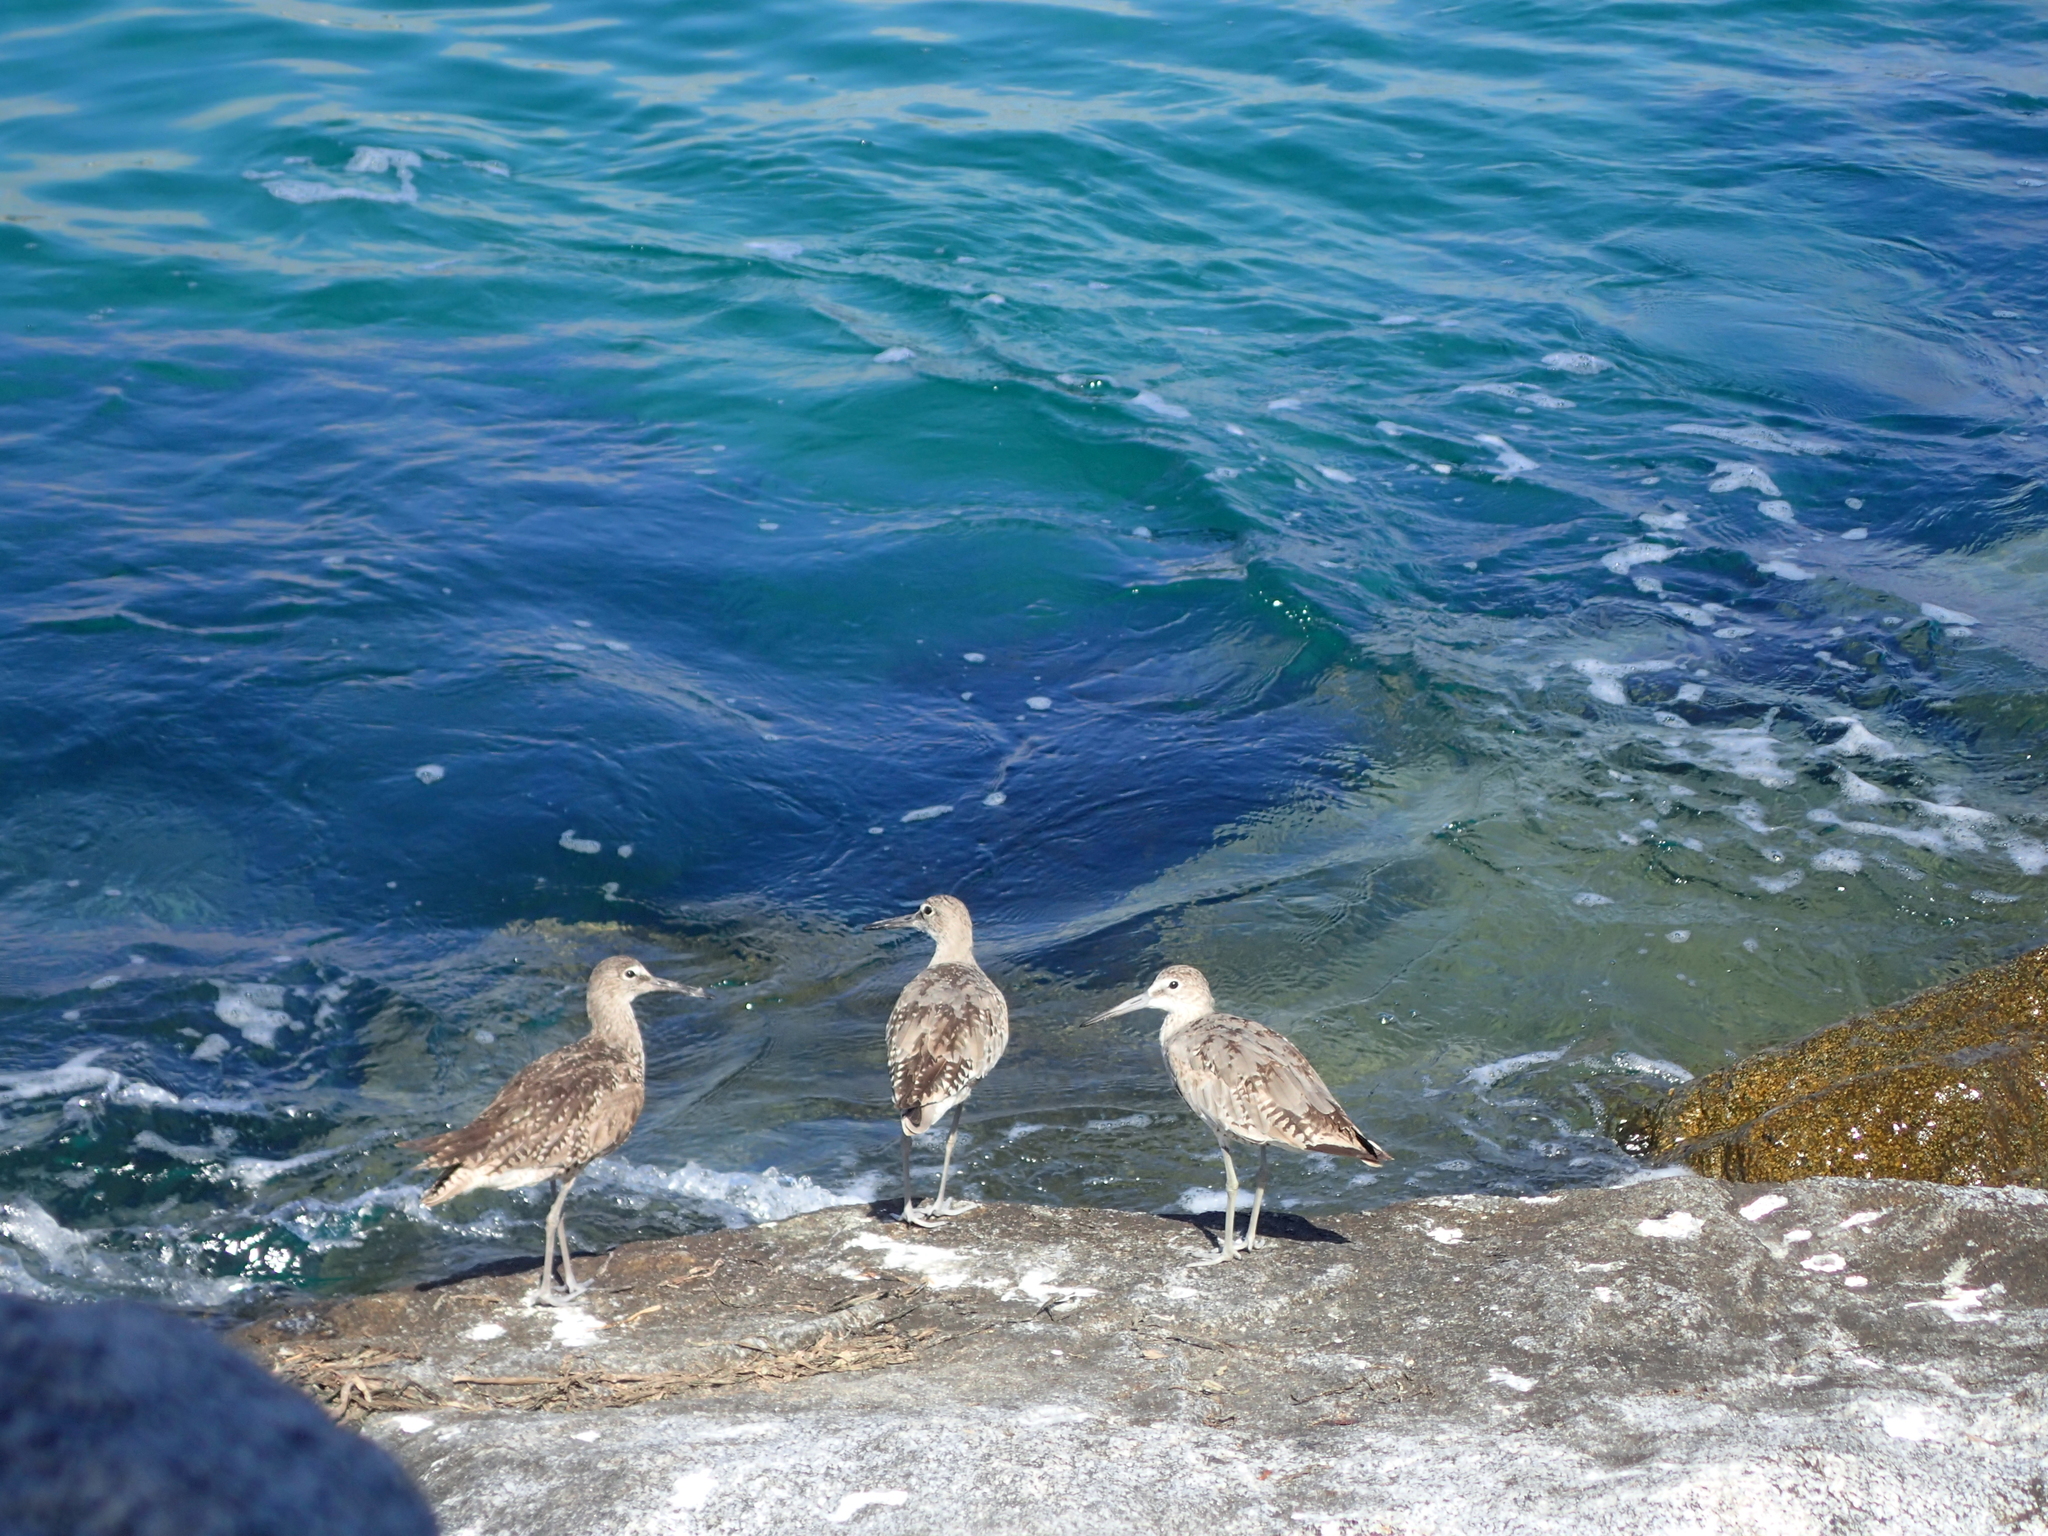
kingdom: Animalia
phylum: Chordata
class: Aves
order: Charadriiformes
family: Scolopacidae
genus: Tringa
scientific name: Tringa semipalmata
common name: Willet
